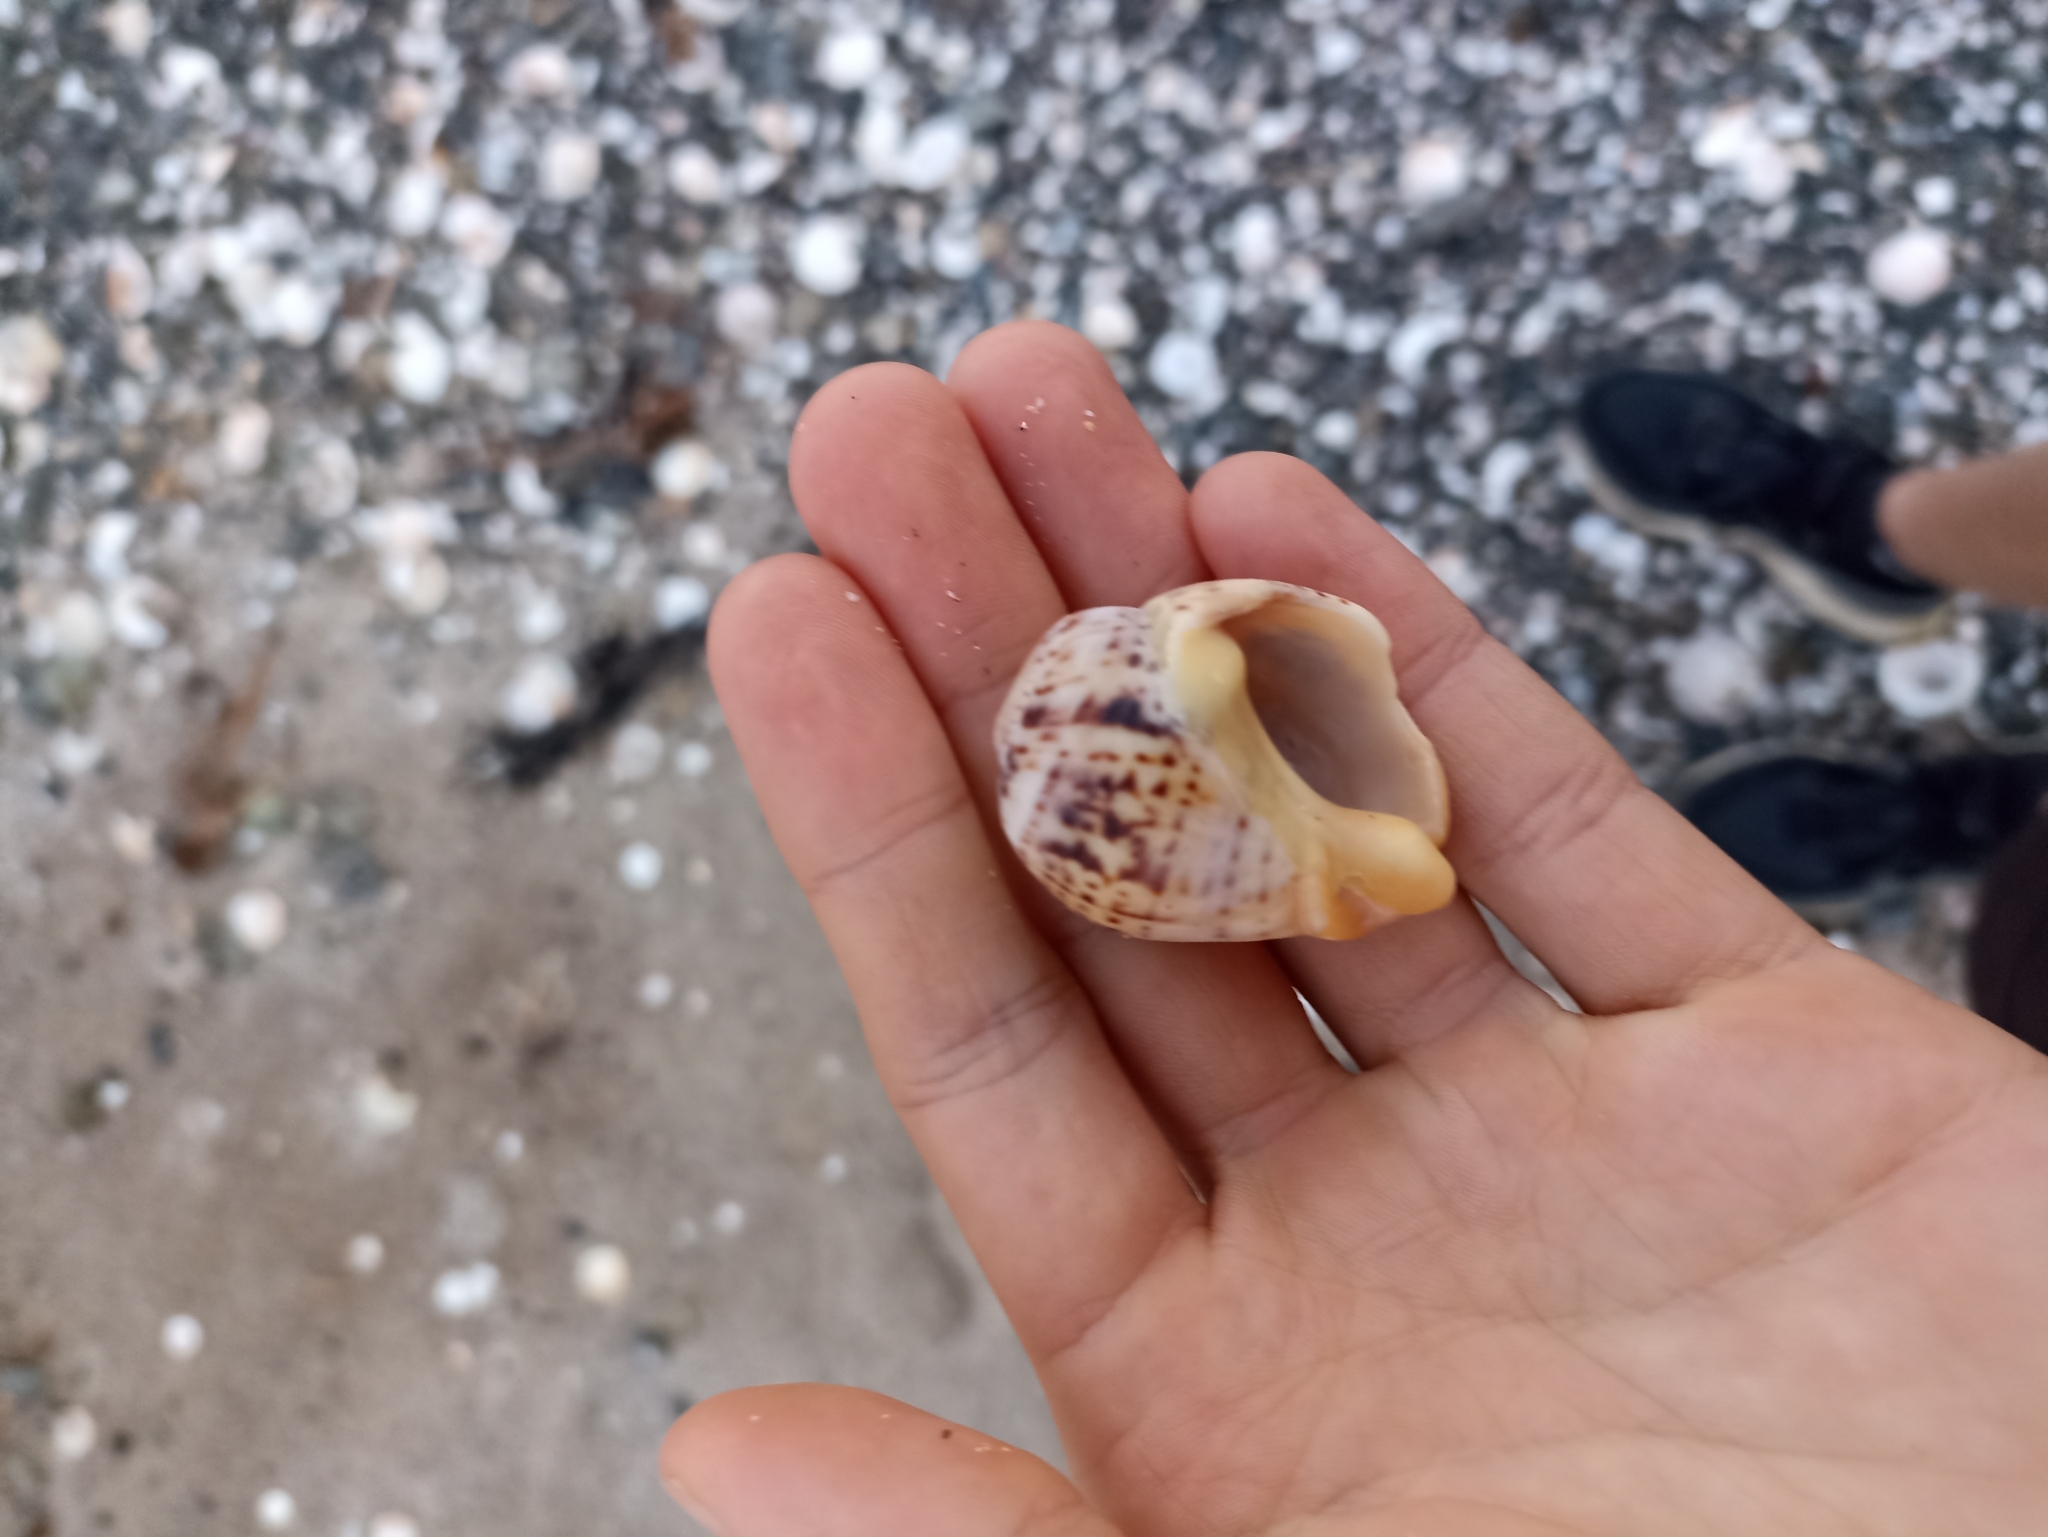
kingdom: Animalia
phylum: Mollusca
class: Gastropoda
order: Neogastropoda
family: Cominellidae
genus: Cominella
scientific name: Cominella adspersa
